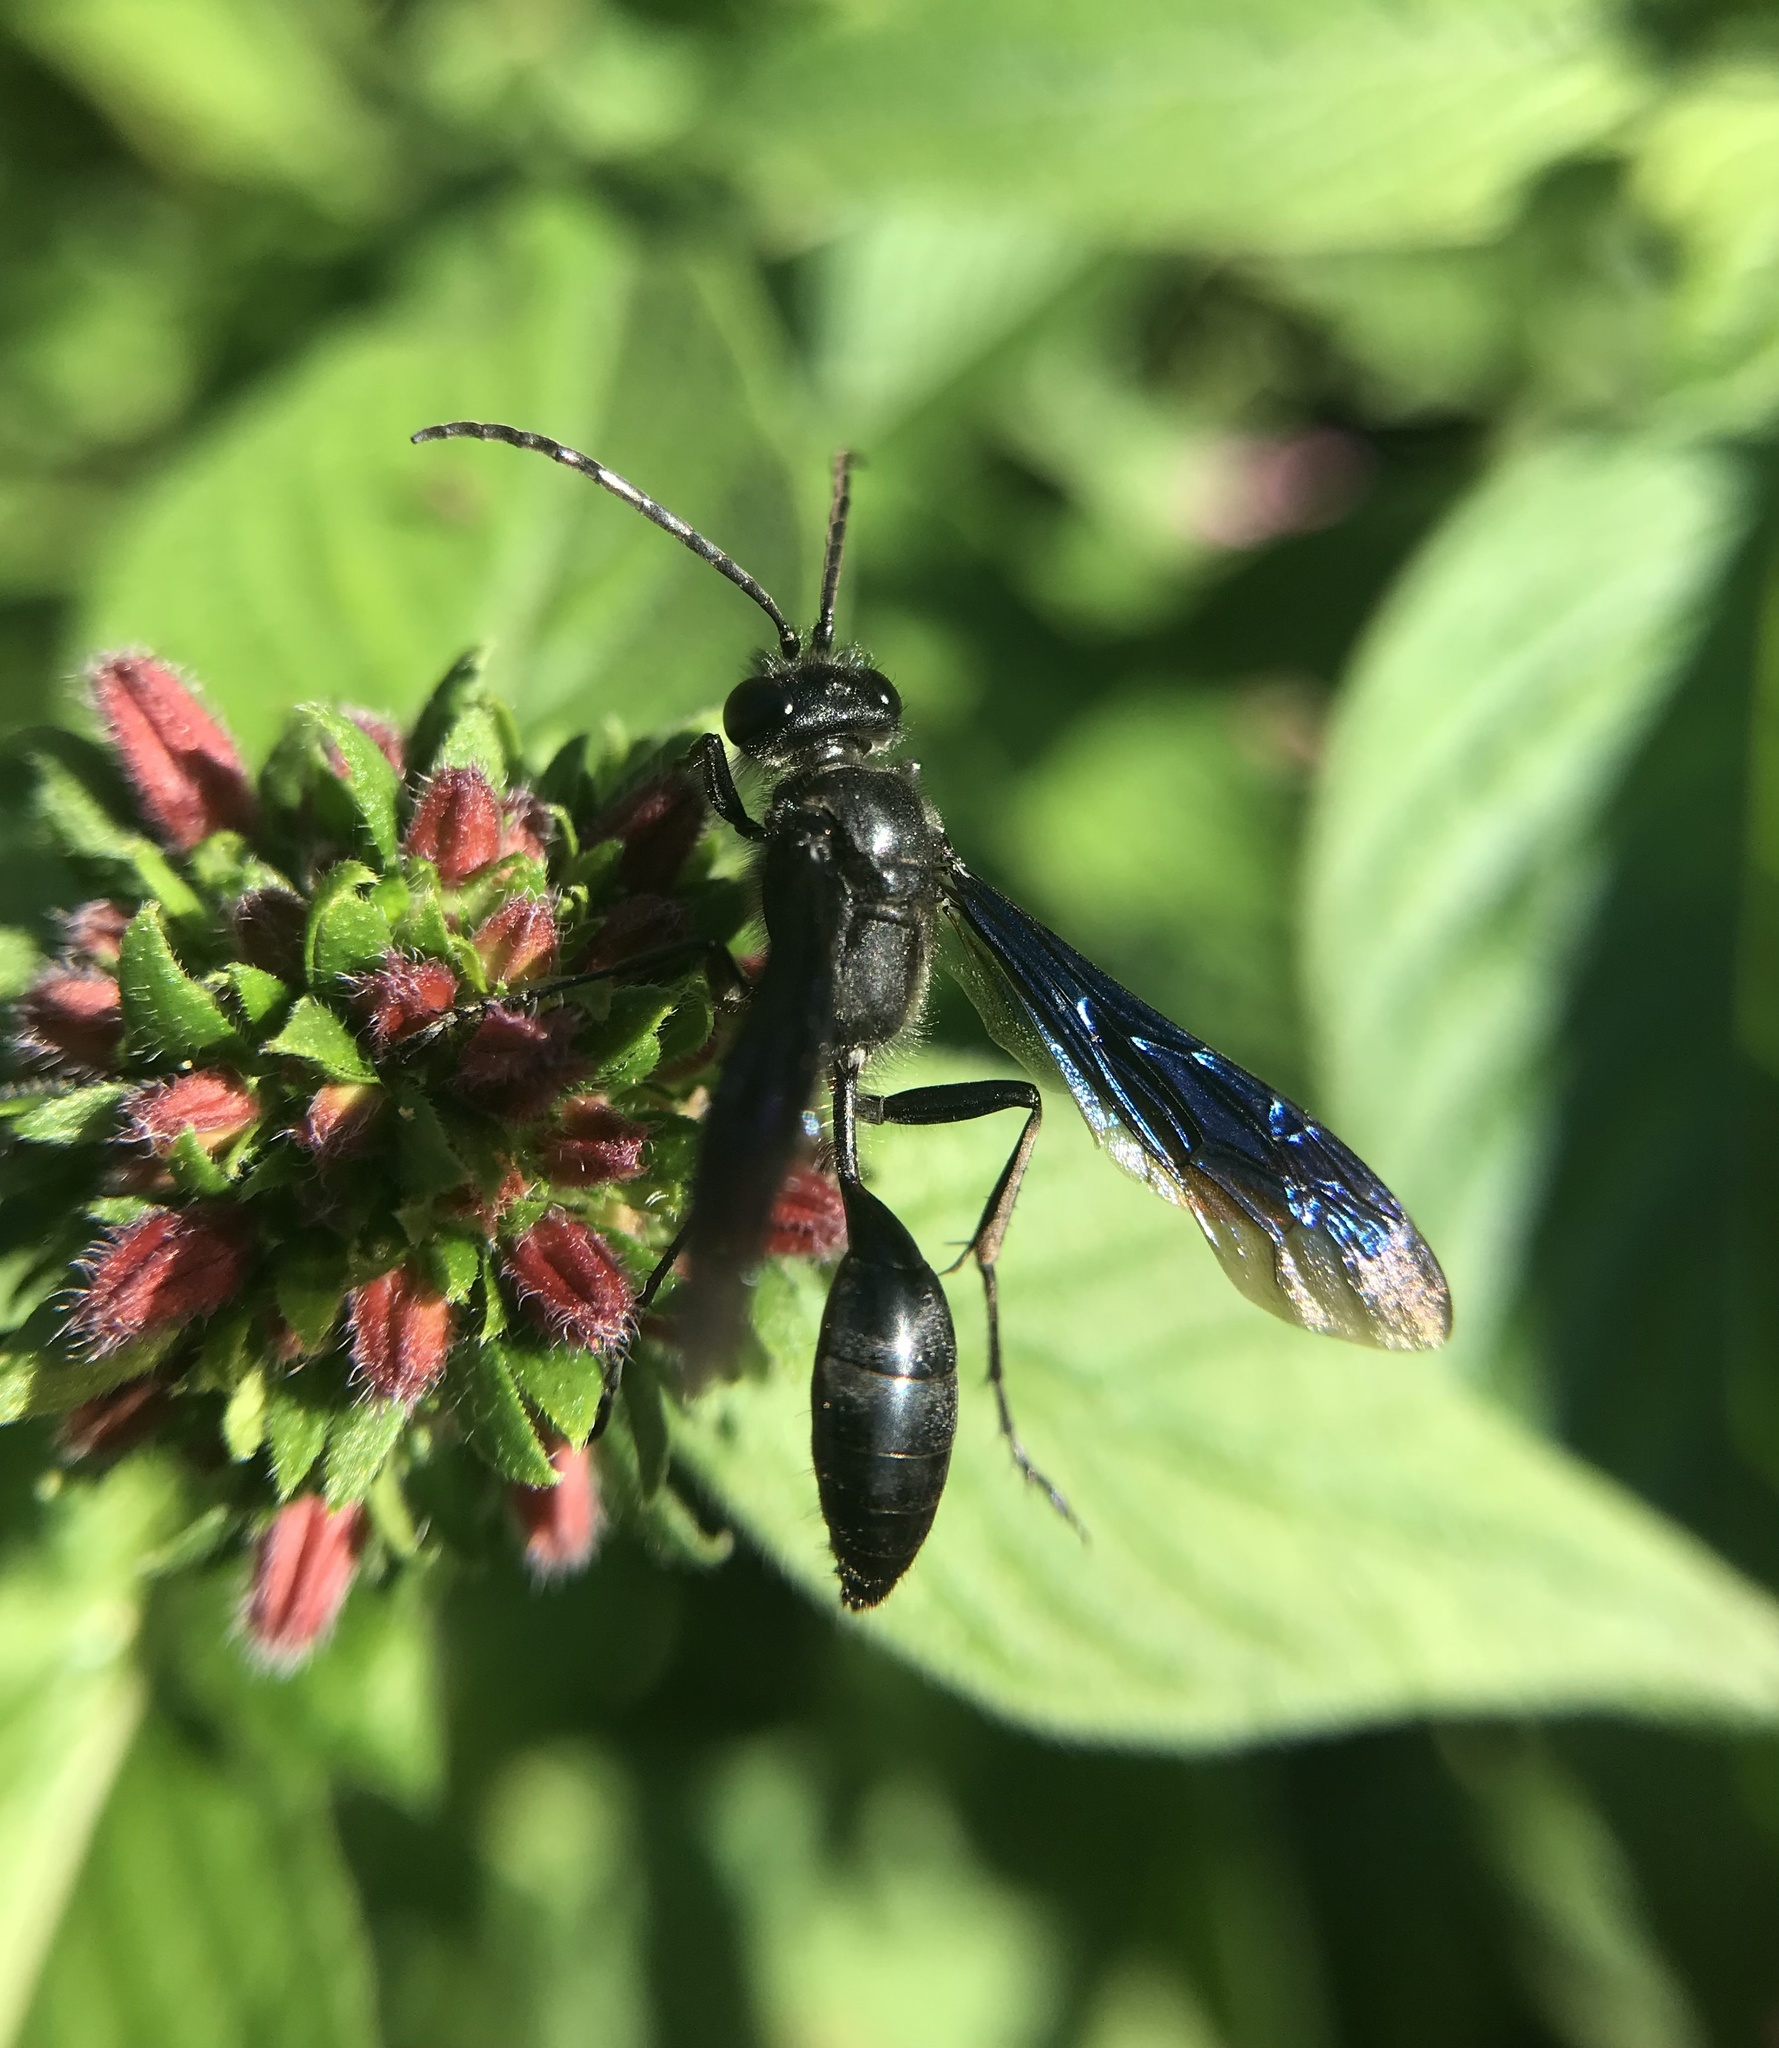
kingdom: Animalia
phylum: Arthropoda
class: Insecta
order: Hymenoptera
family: Sphecidae
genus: Isodontia
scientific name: Isodontia philadelphica
